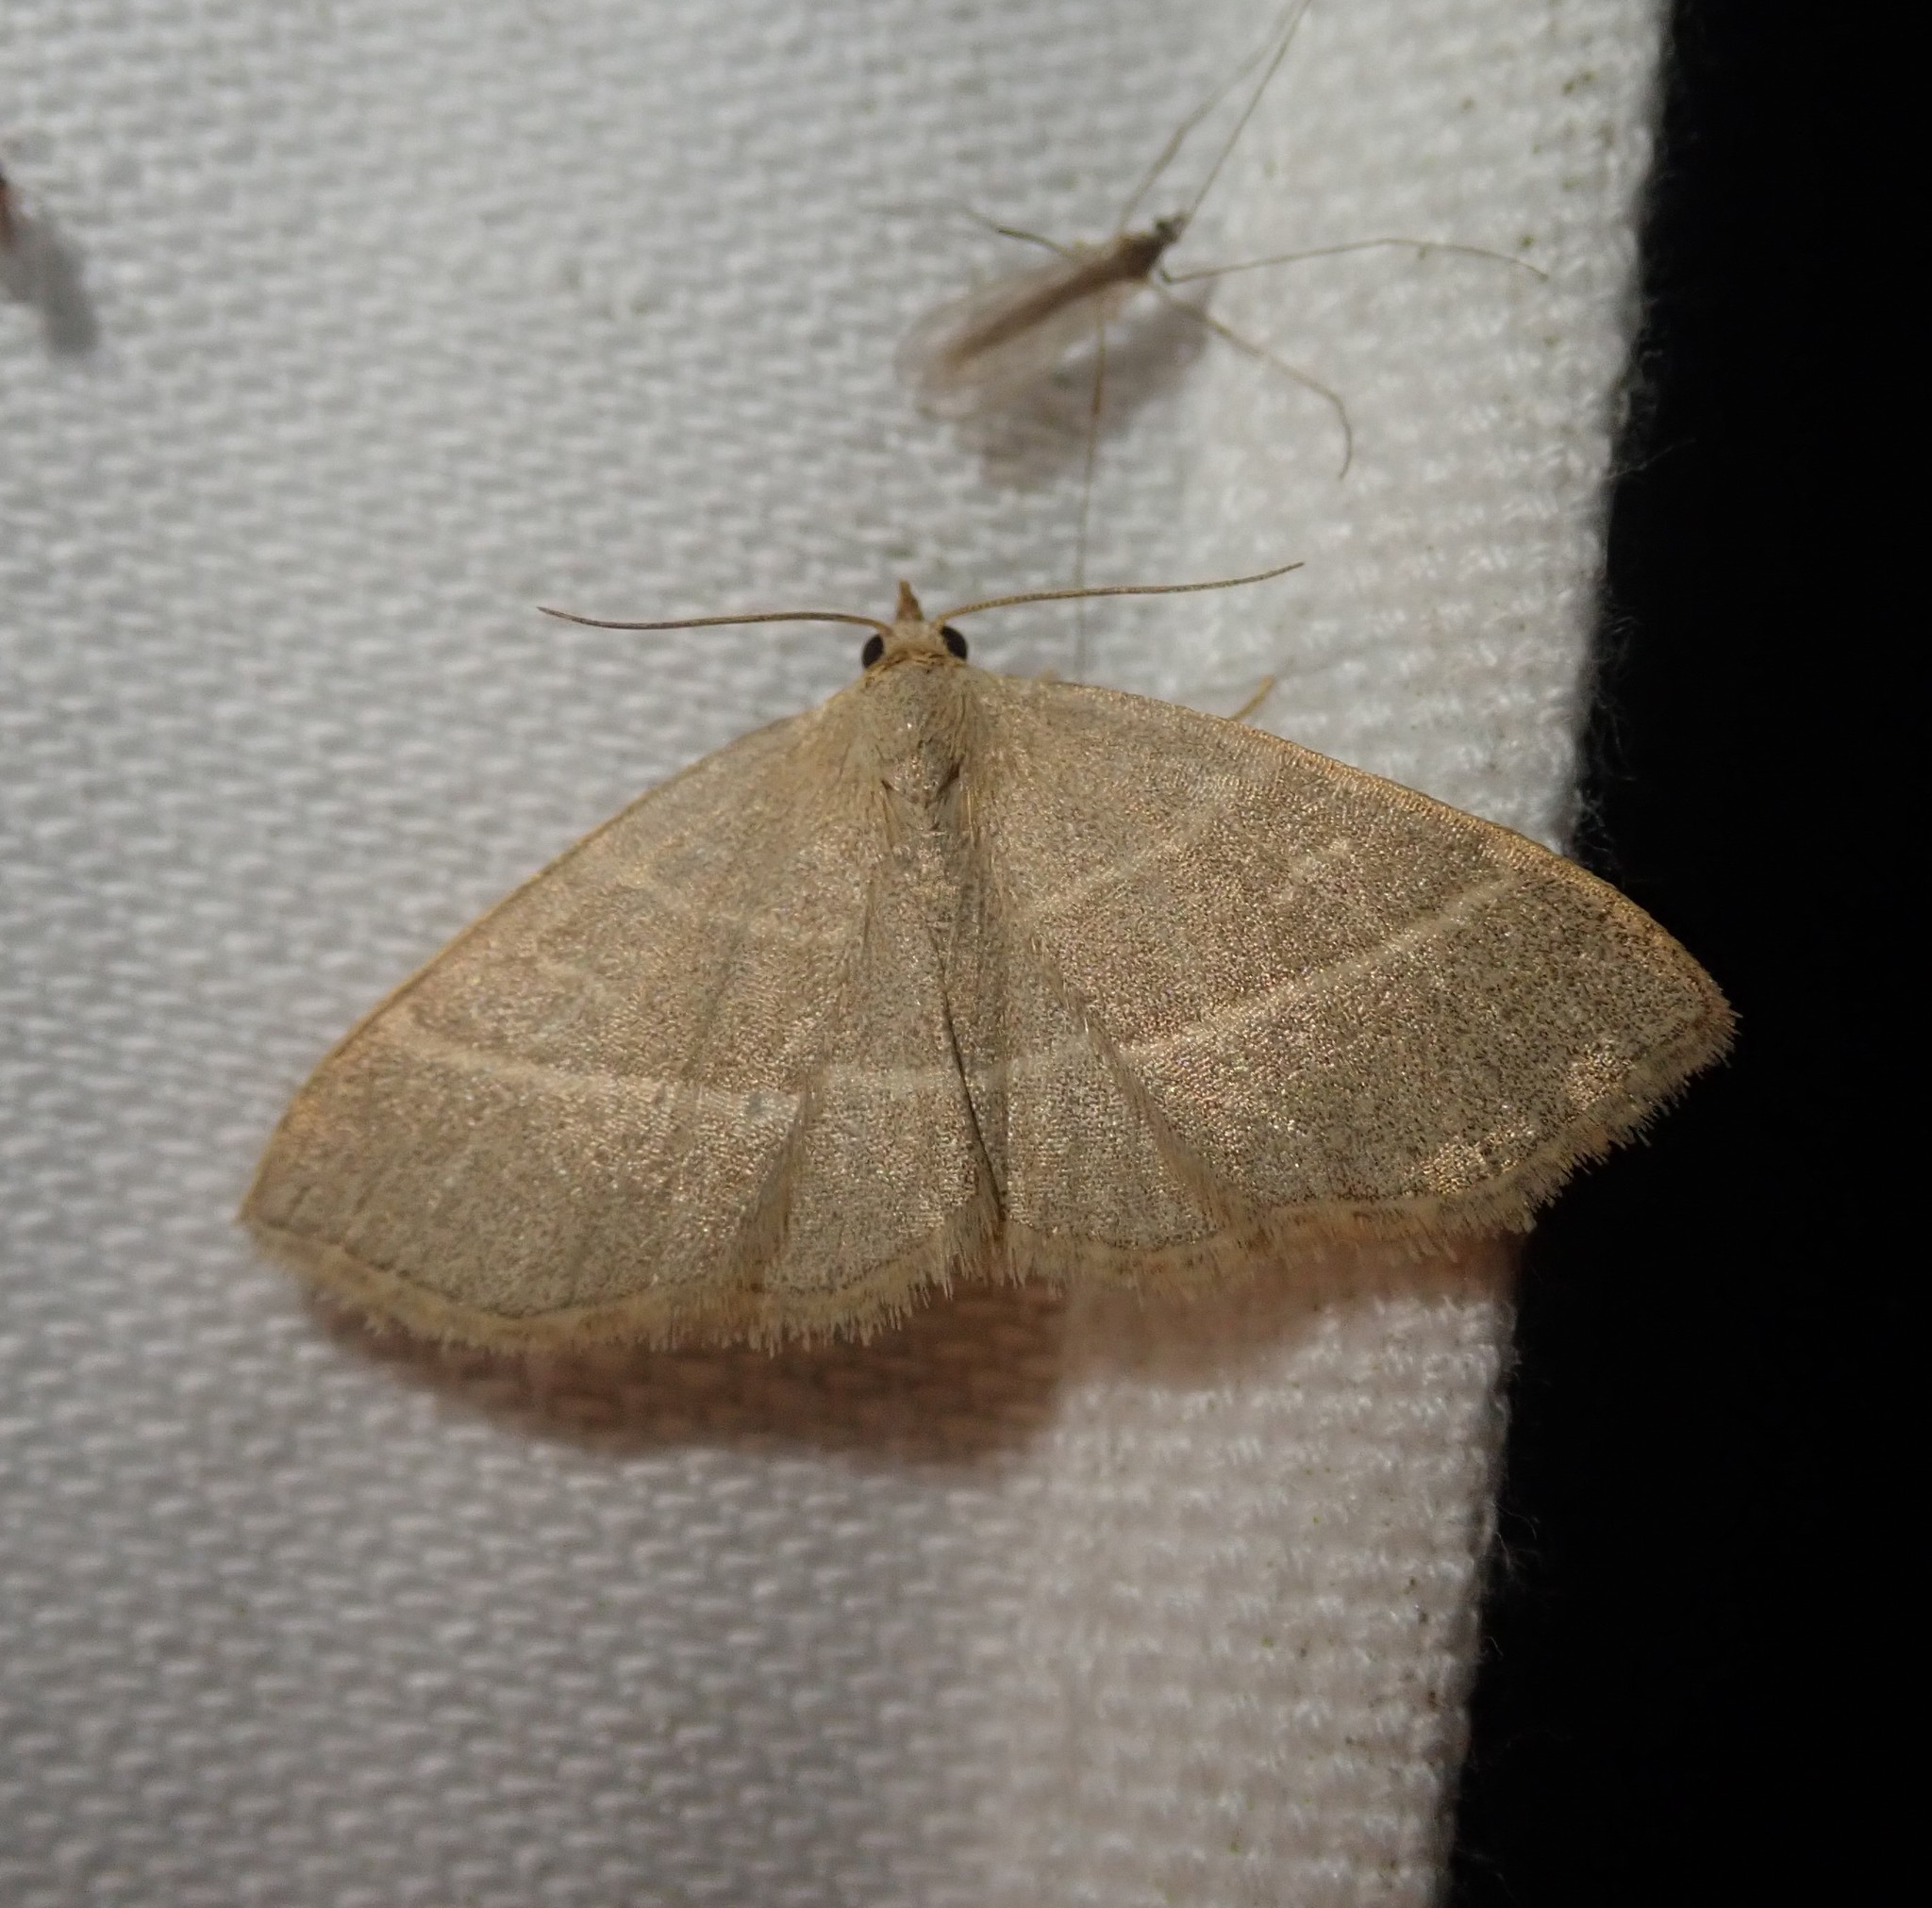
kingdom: Animalia
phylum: Arthropoda
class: Insecta
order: Lepidoptera
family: Erebidae
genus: Trisateles
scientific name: Trisateles emortualis
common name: Olive crescent
